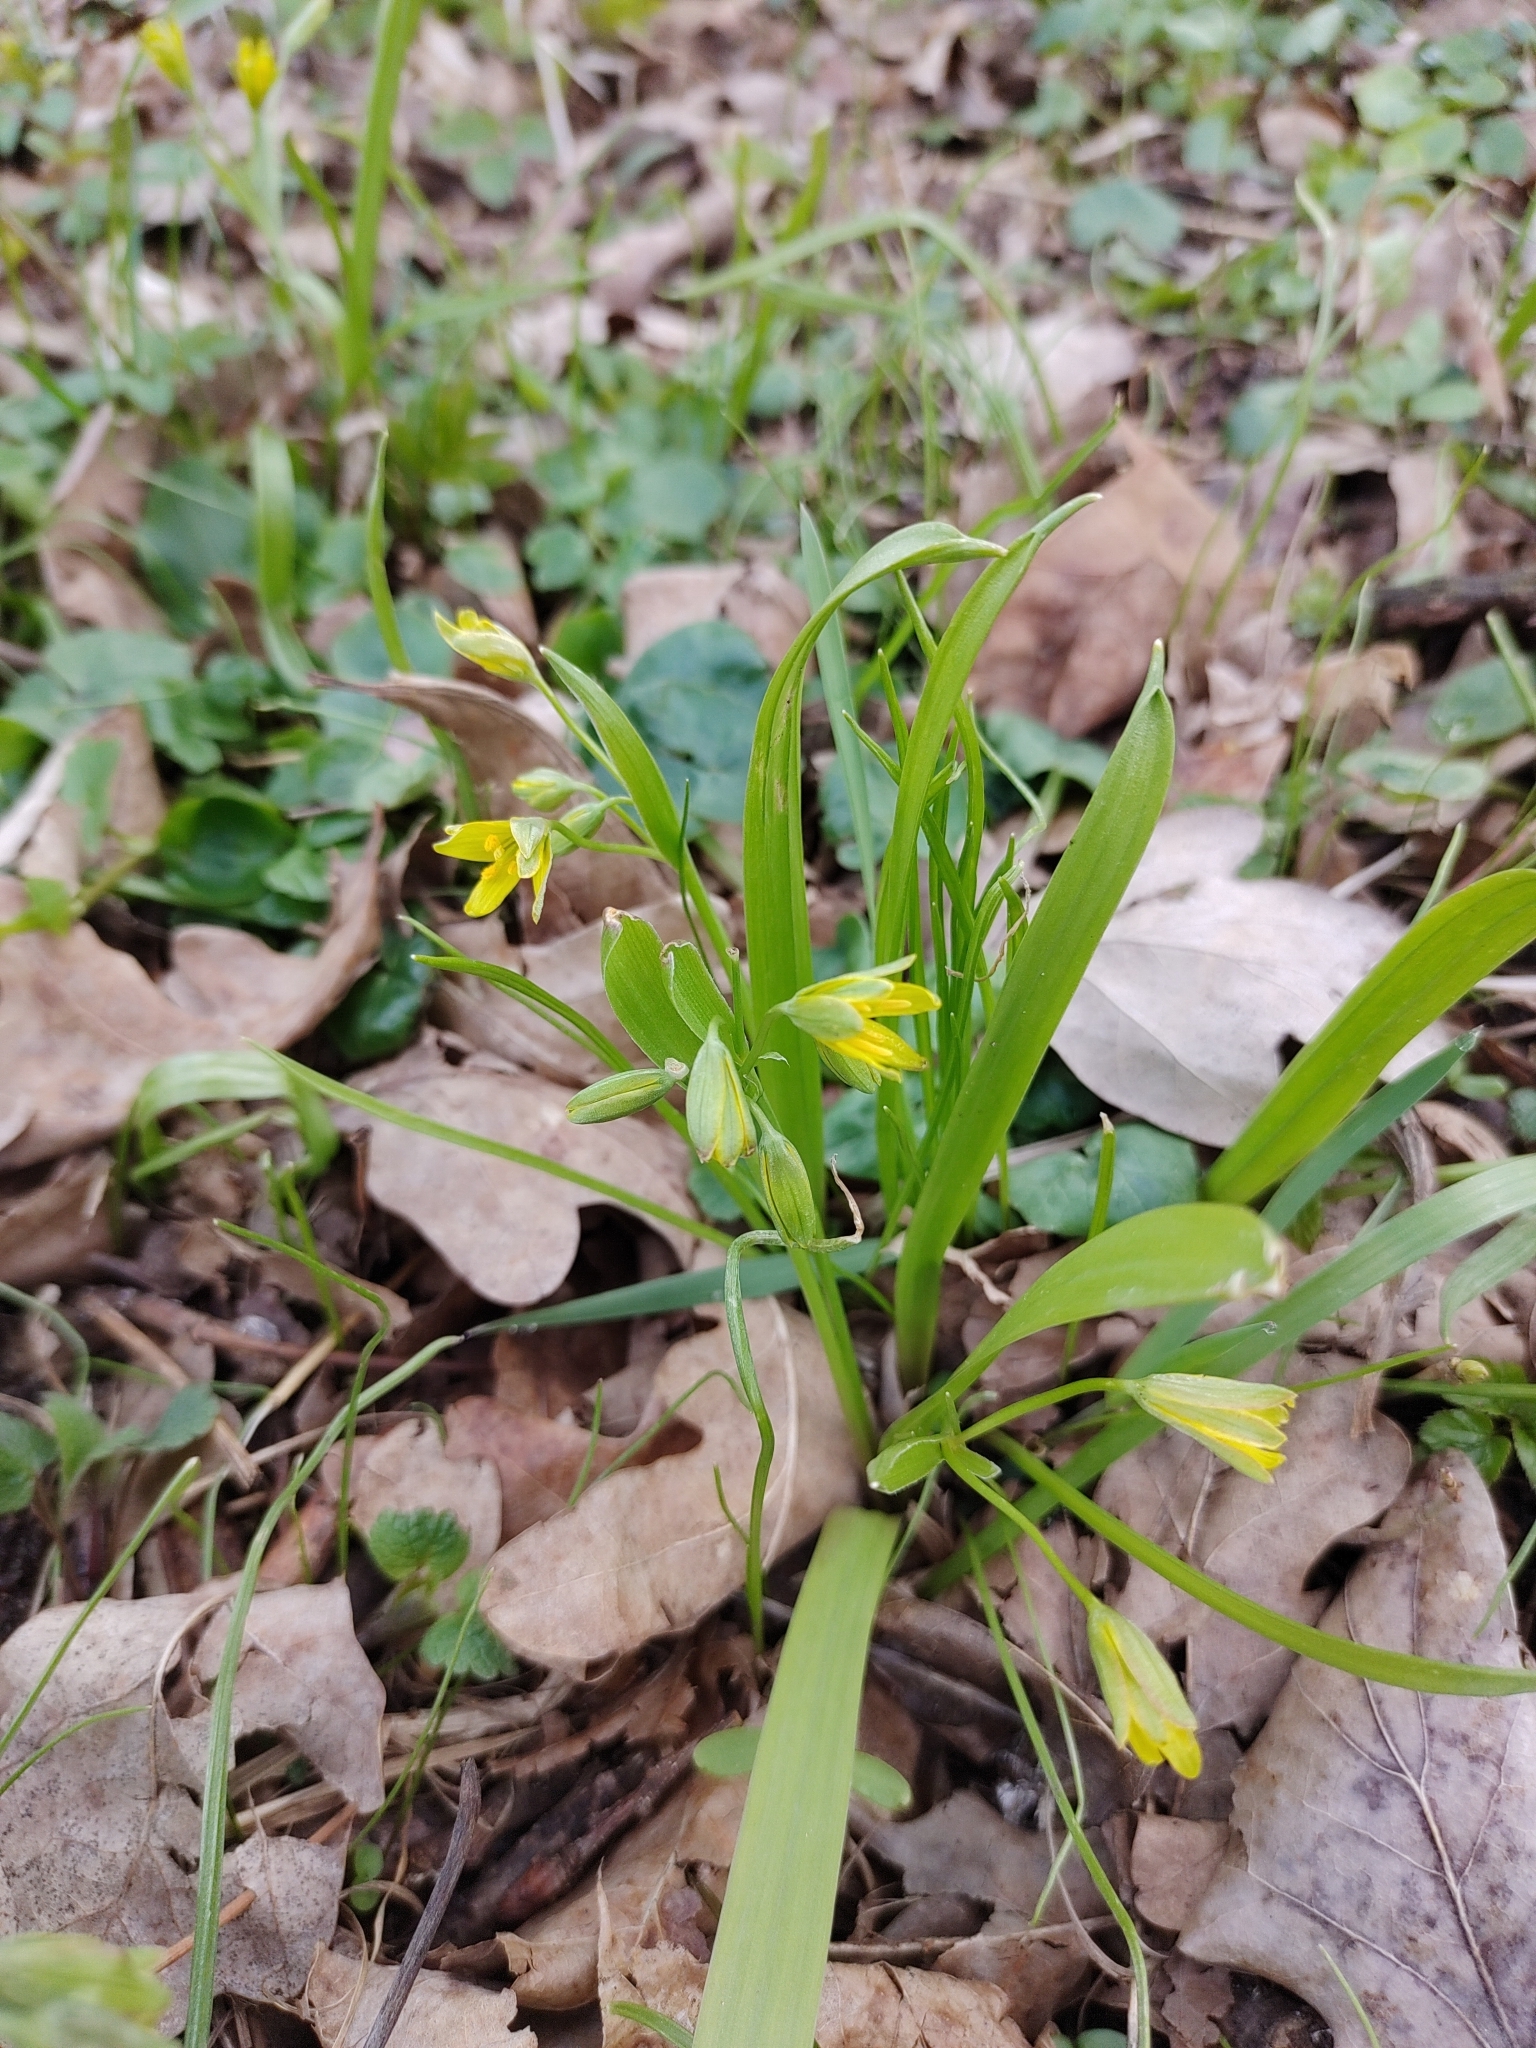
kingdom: Plantae
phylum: Tracheophyta
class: Liliopsida
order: Liliales
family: Liliaceae
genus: Gagea
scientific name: Gagea lutea
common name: Yellow star-of-bethlehem
